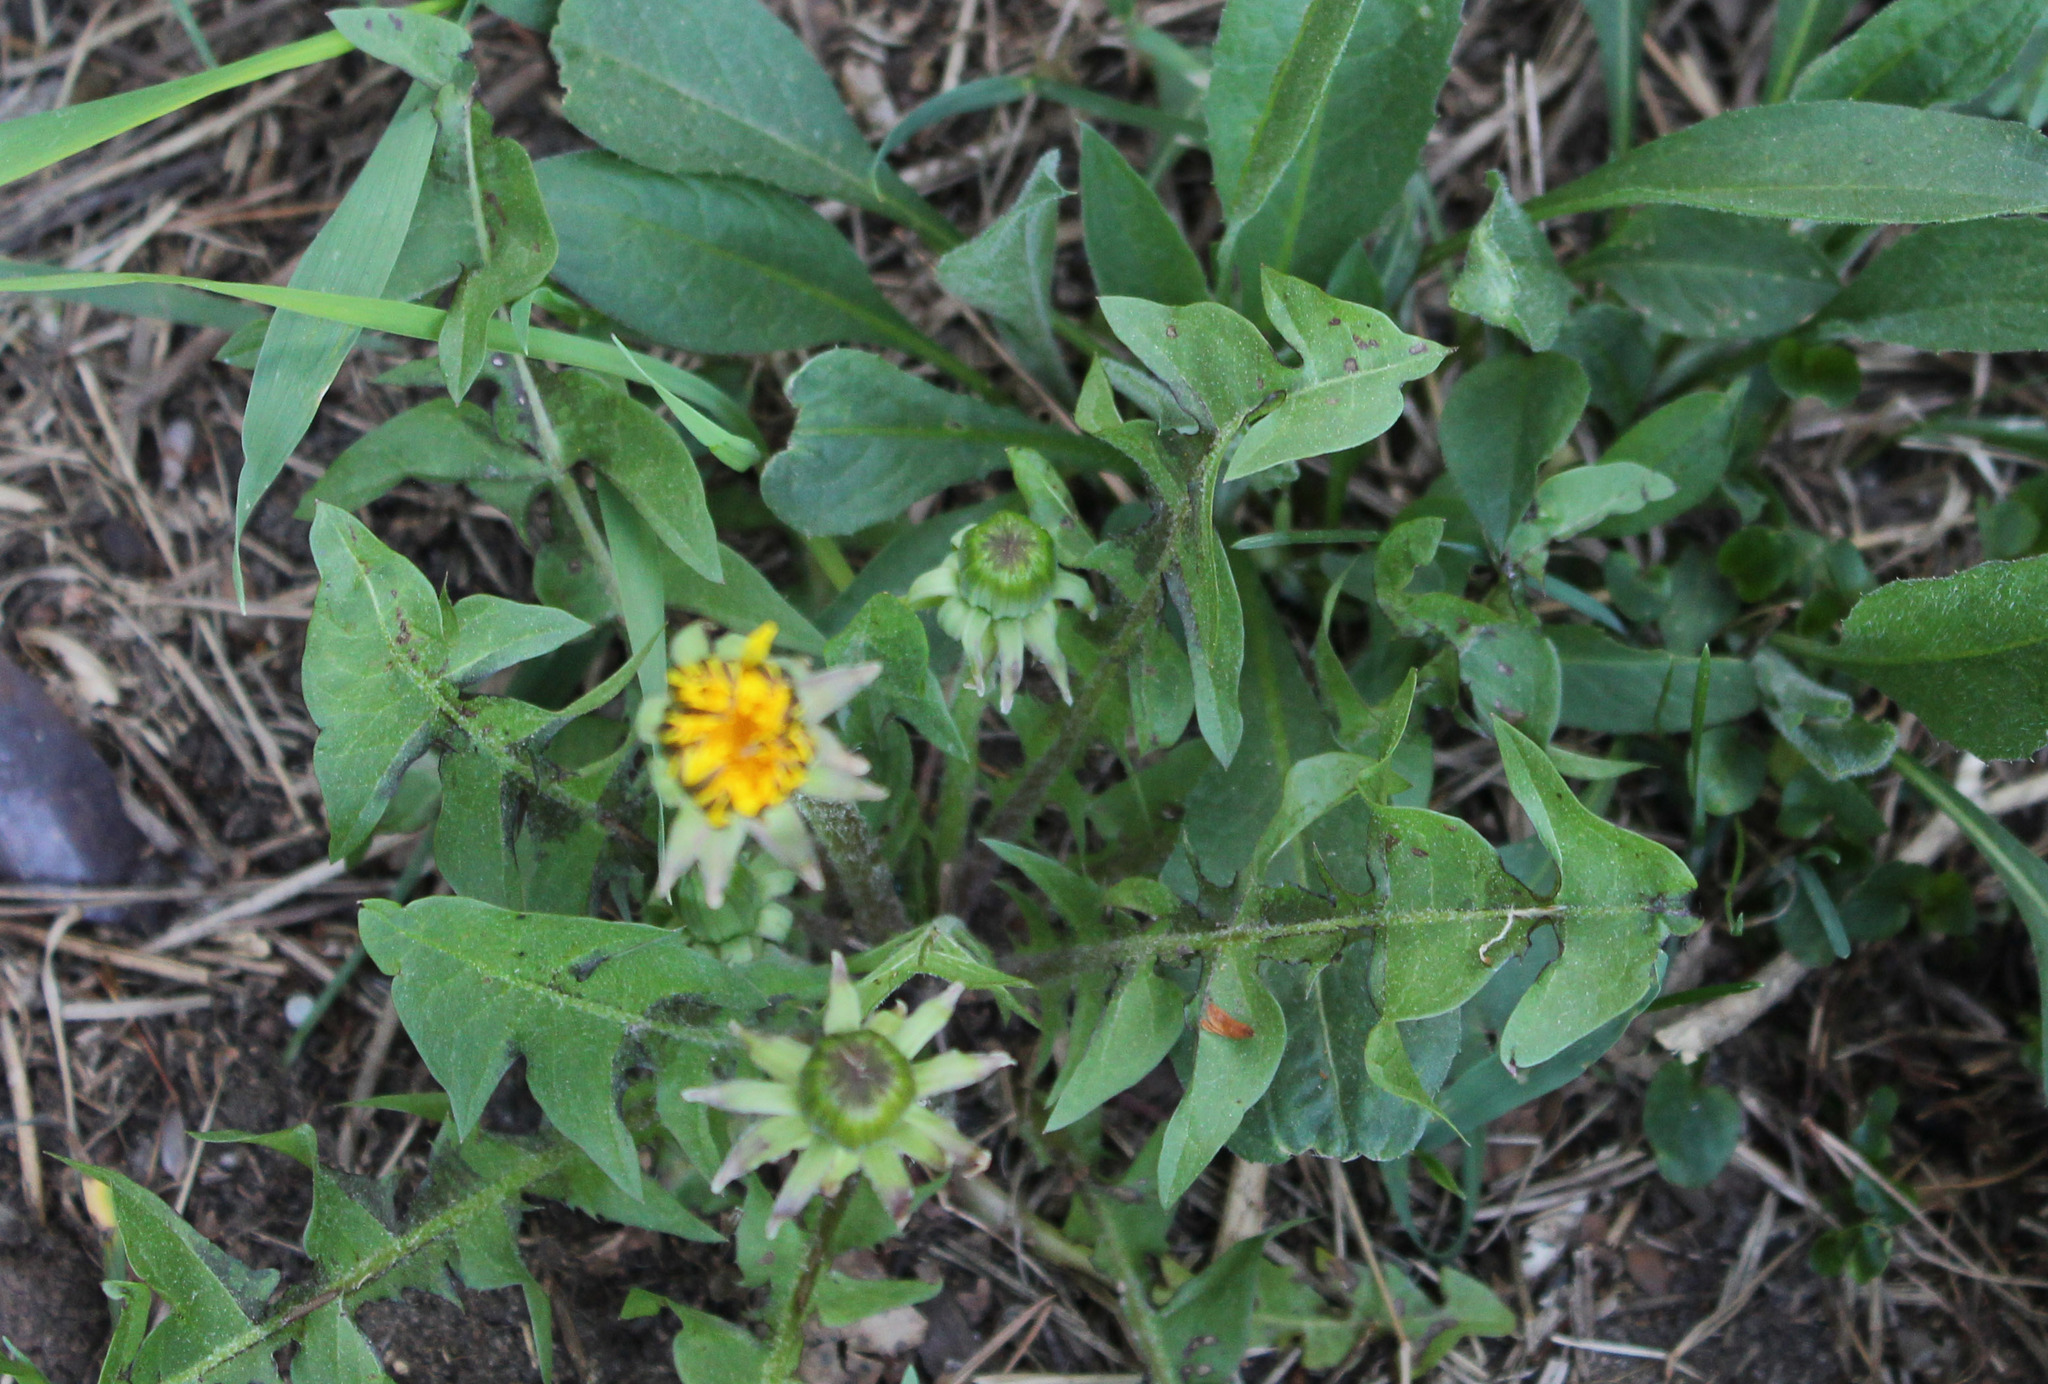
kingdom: Plantae
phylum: Tracheophyta
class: Magnoliopsida
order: Asterales
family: Asteraceae
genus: Taraxacum
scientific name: Taraxacum officinale
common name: Common dandelion
